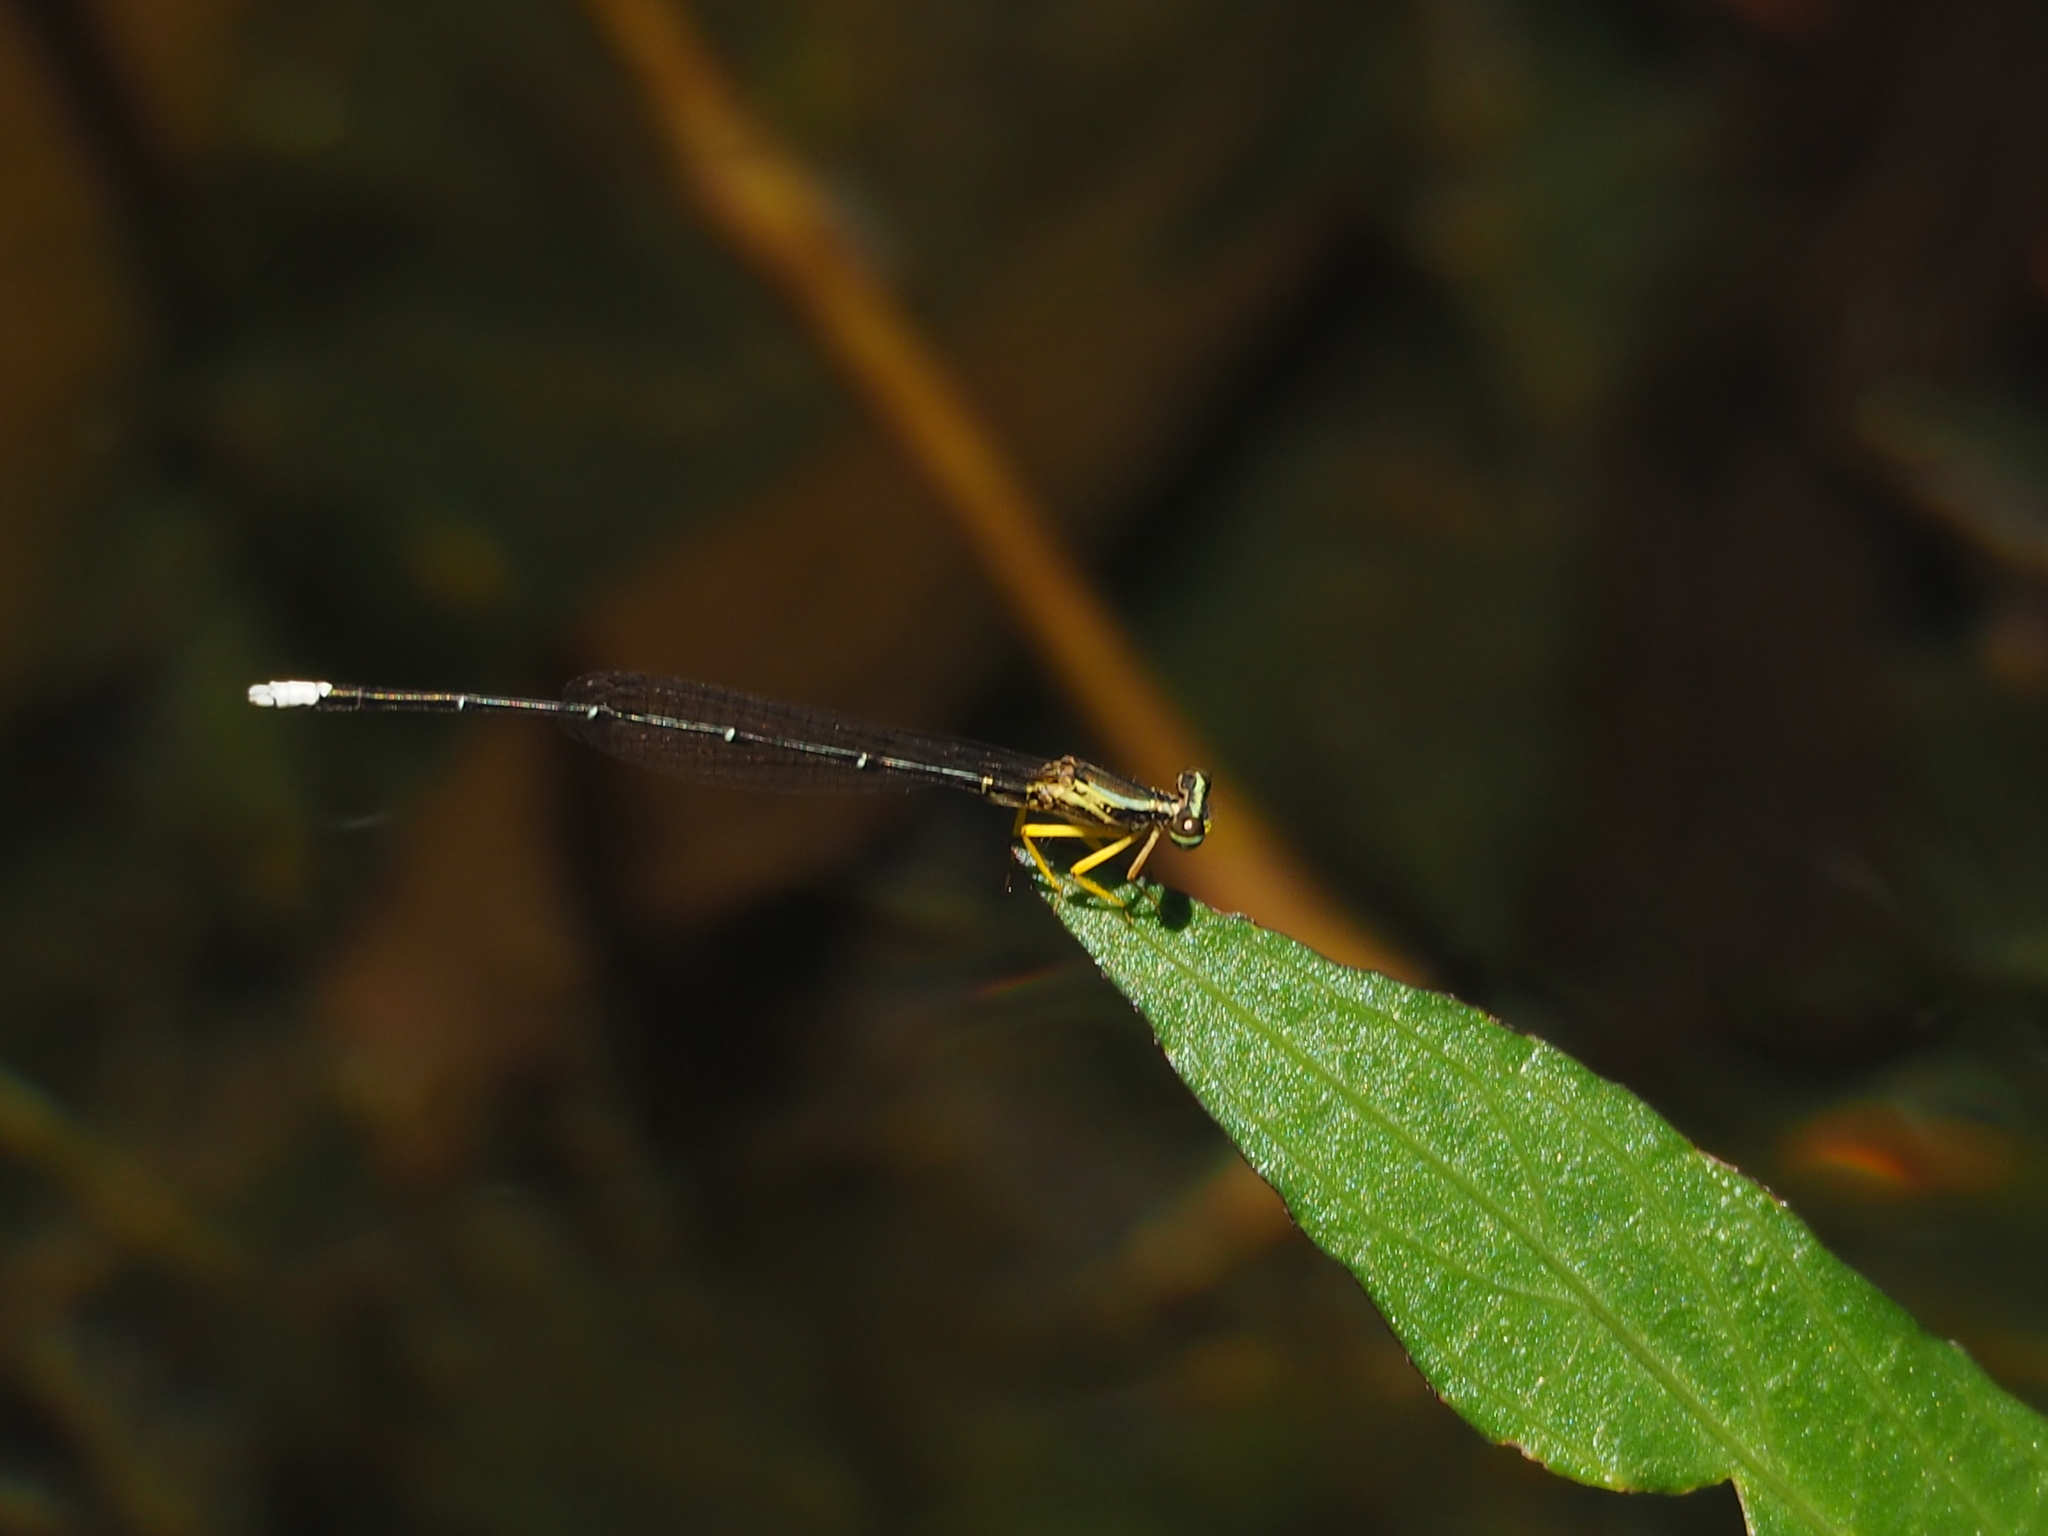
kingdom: Animalia
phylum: Arthropoda
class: Insecta
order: Odonata
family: Platycnemididae
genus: Copera
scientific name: Copera marginipes
